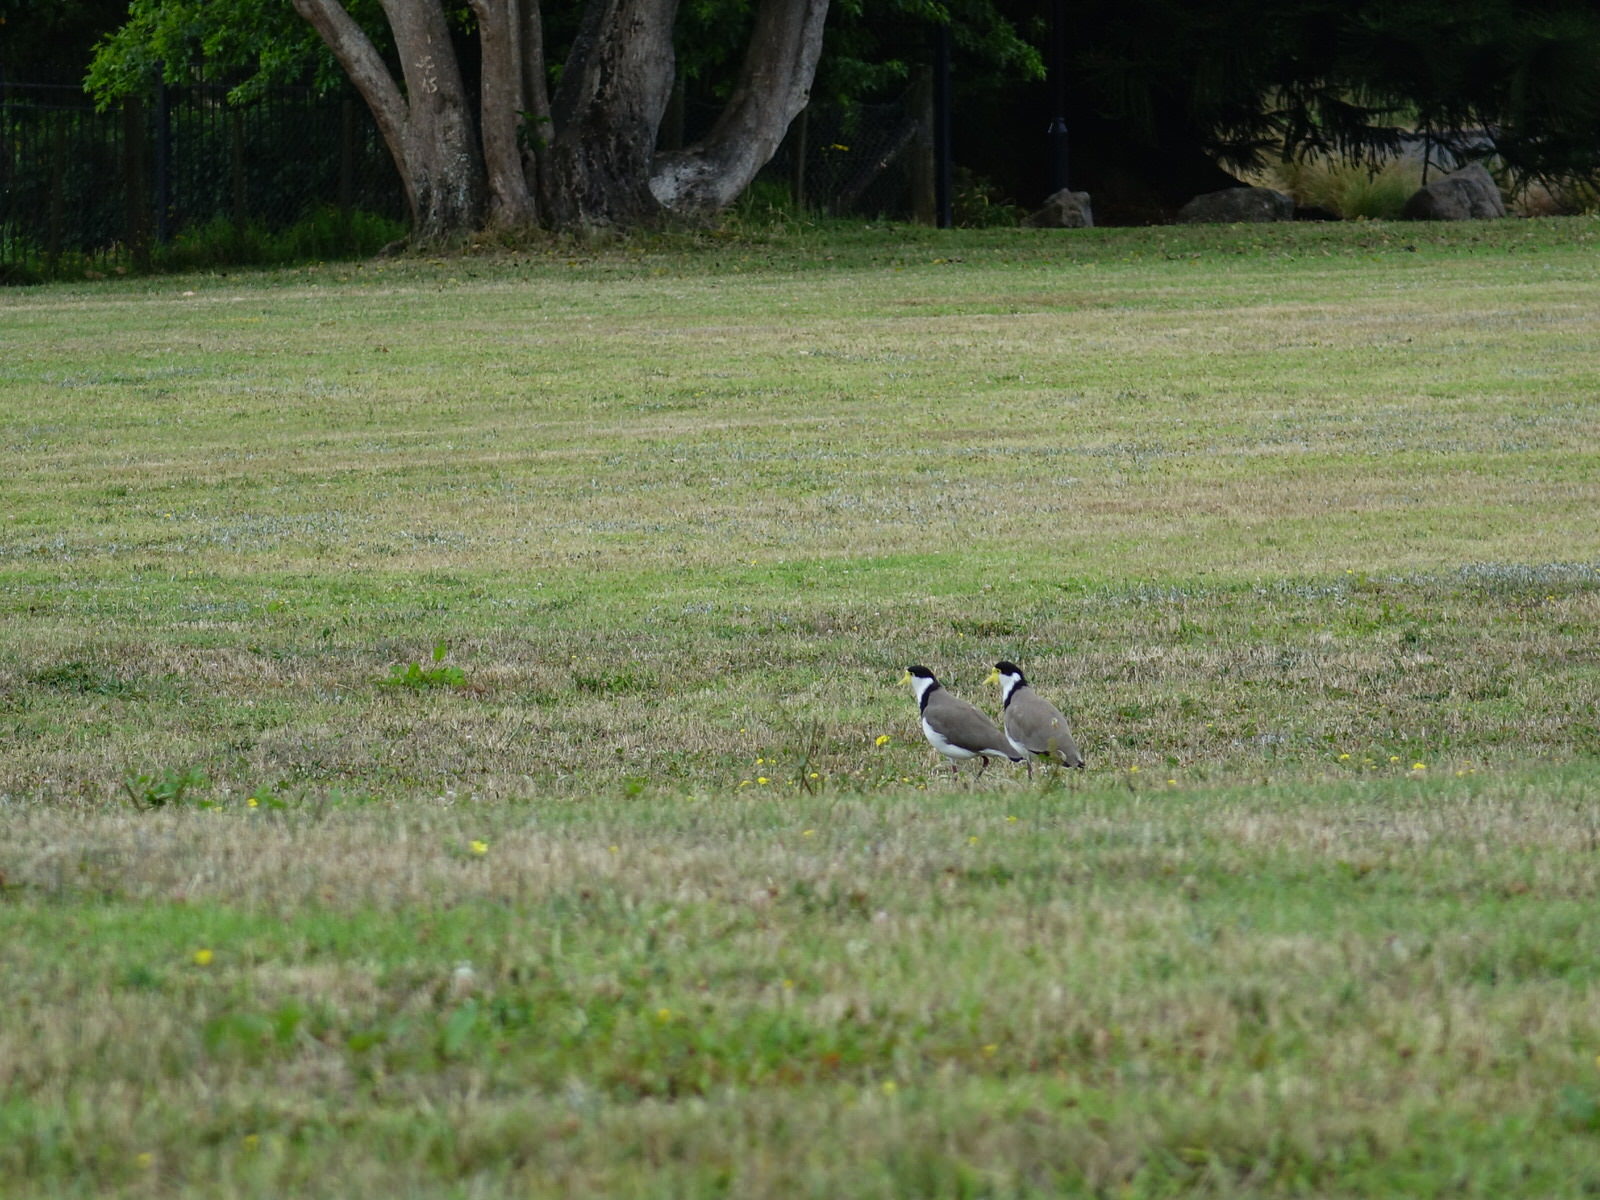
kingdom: Animalia
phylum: Chordata
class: Aves
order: Charadriiformes
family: Charadriidae
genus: Vanellus
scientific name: Vanellus miles
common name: Masked lapwing
